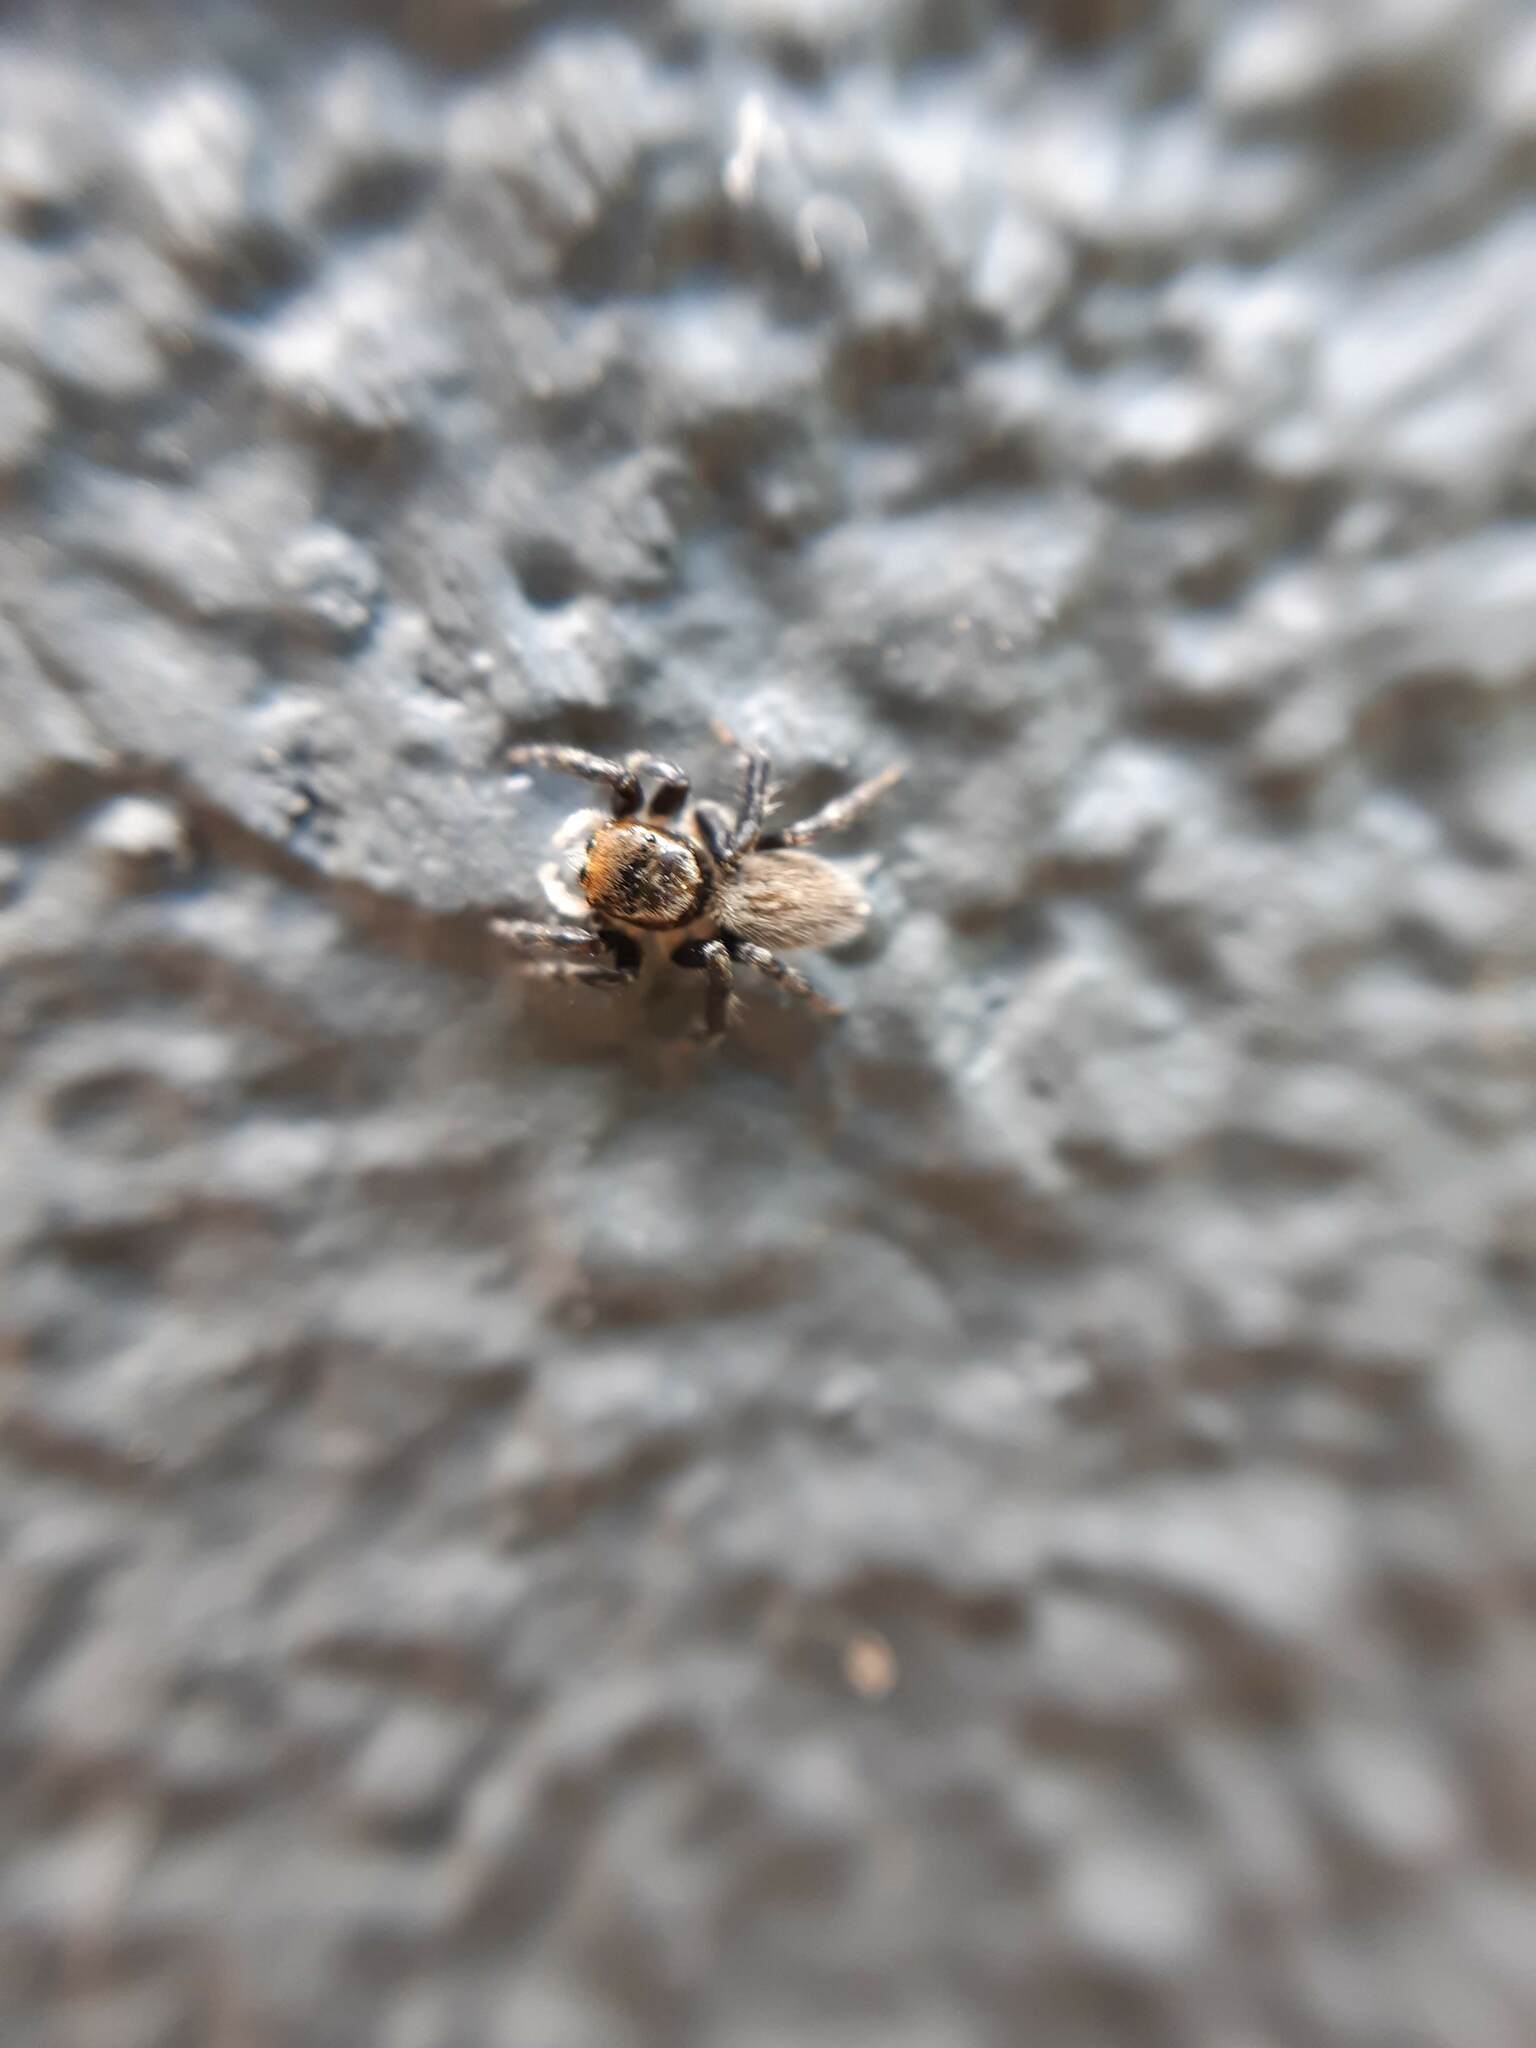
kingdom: Animalia
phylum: Arthropoda
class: Arachnida
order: Araneae
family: Salticidae
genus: Maratus
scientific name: Maratus griseus
